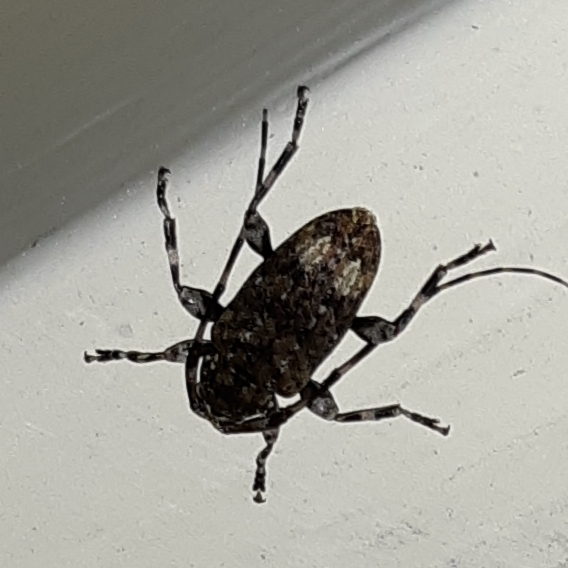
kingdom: Animalia
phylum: Arthropoda
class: Insecta
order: Coleoptera
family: Cerambycidae
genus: Astyleiopus
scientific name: Astyleiopus variegatus
